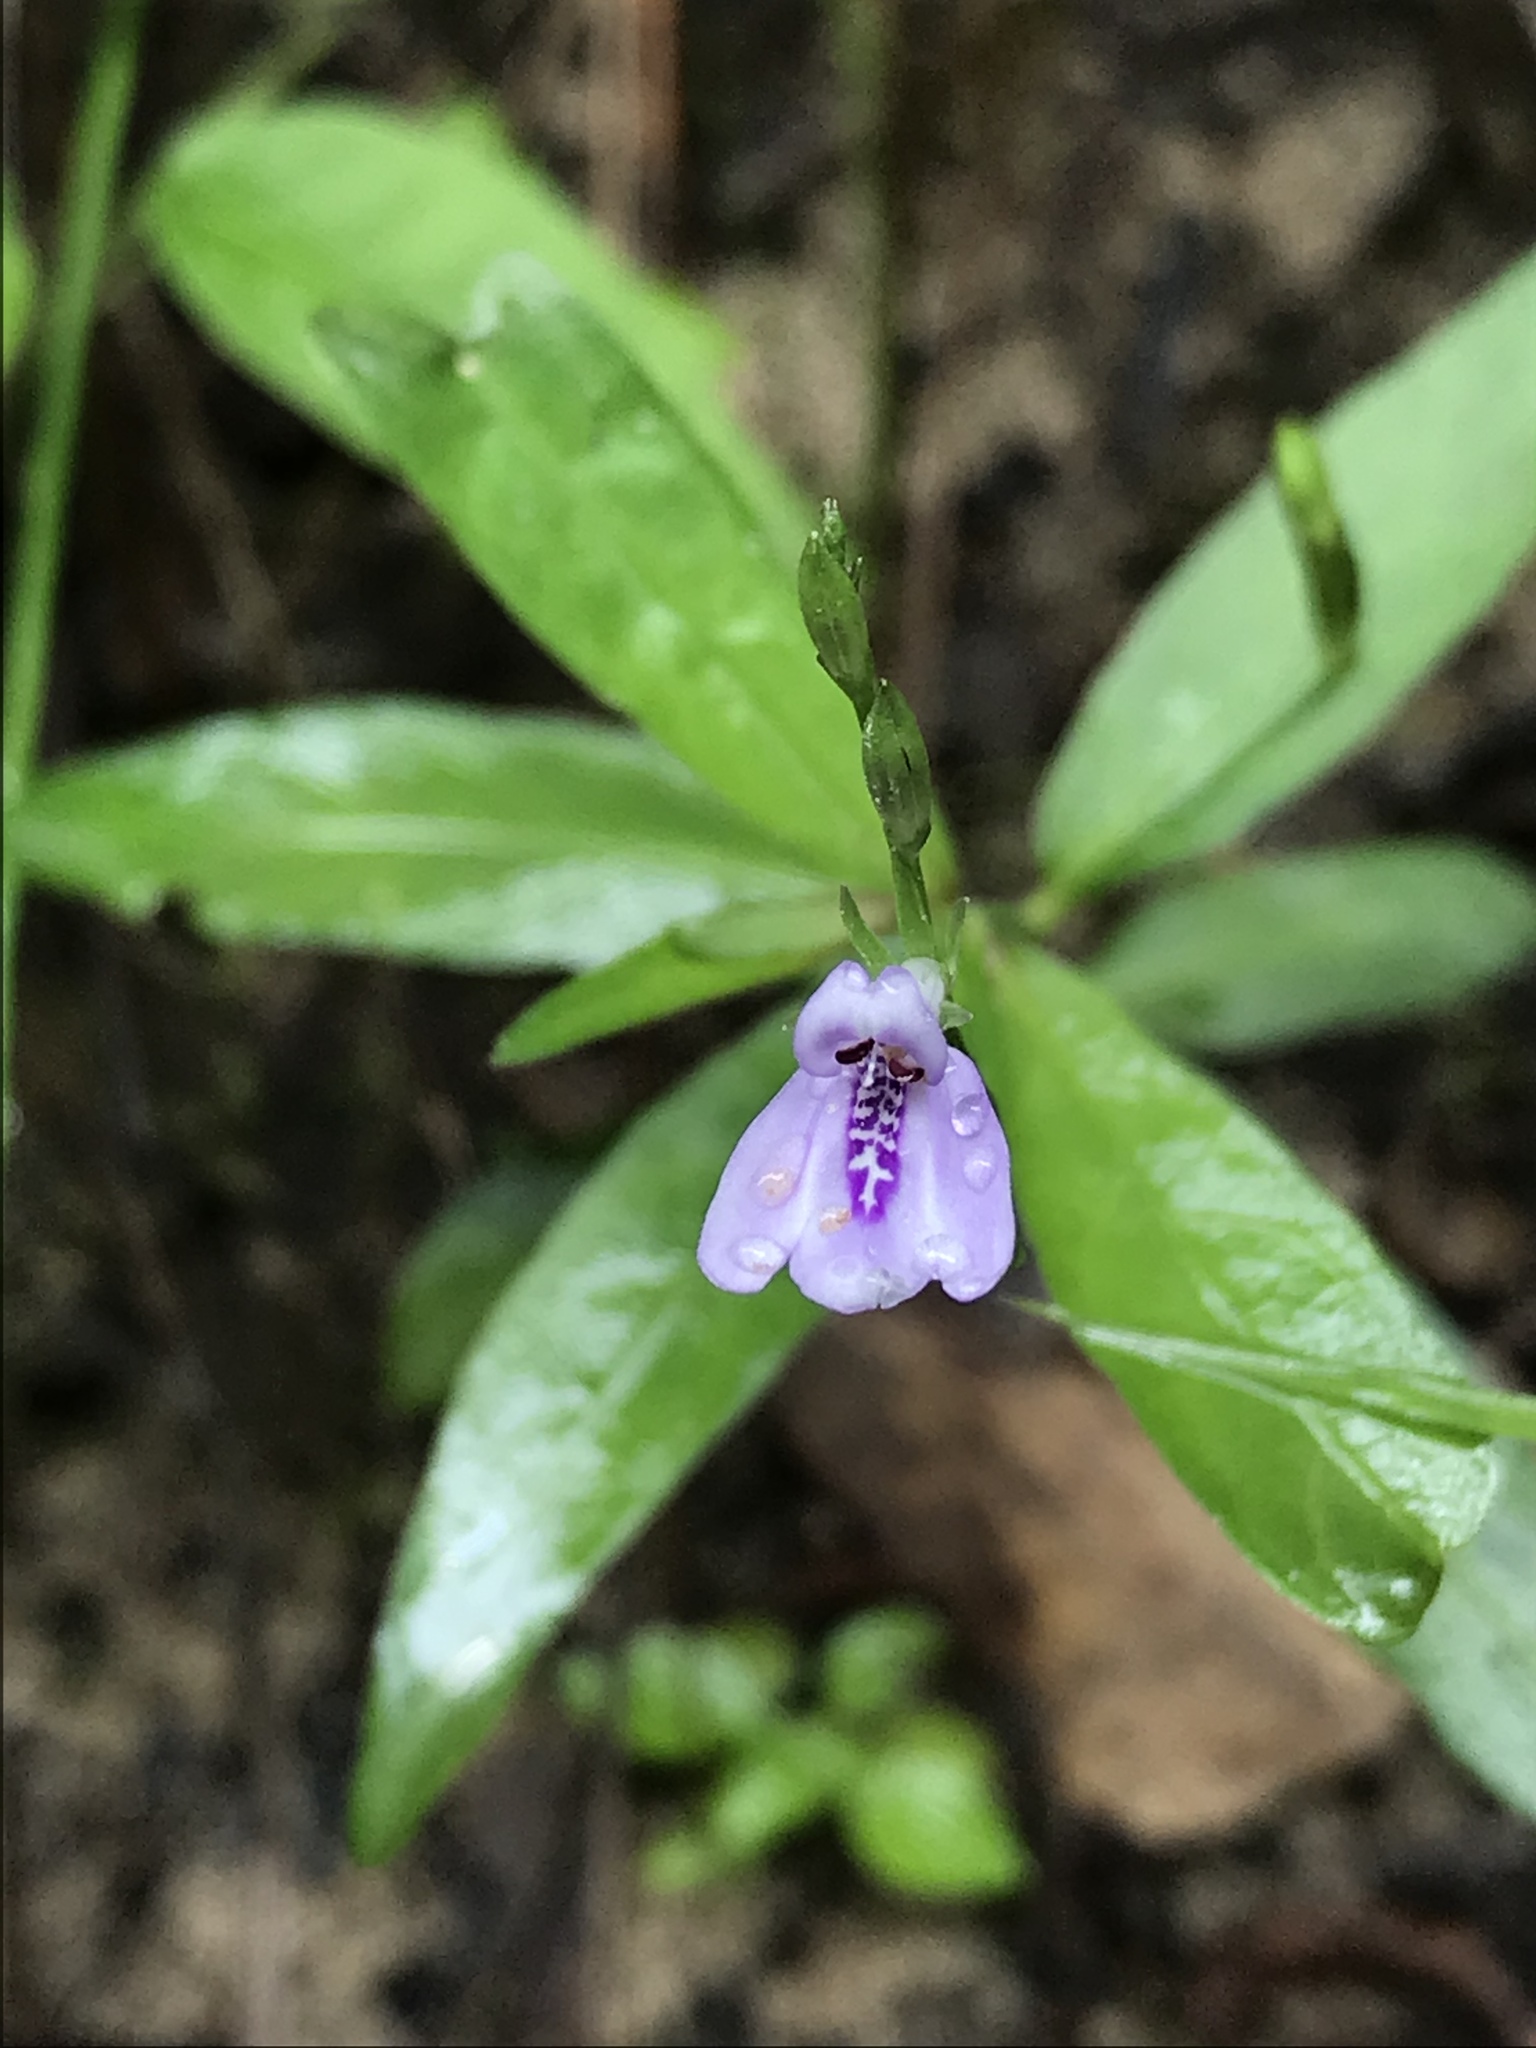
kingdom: Plantae
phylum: Tracheophyta
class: Magnoliopsida
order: Lamiales
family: Acanthaceae
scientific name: Acanthaceae
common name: Acanthaceae
